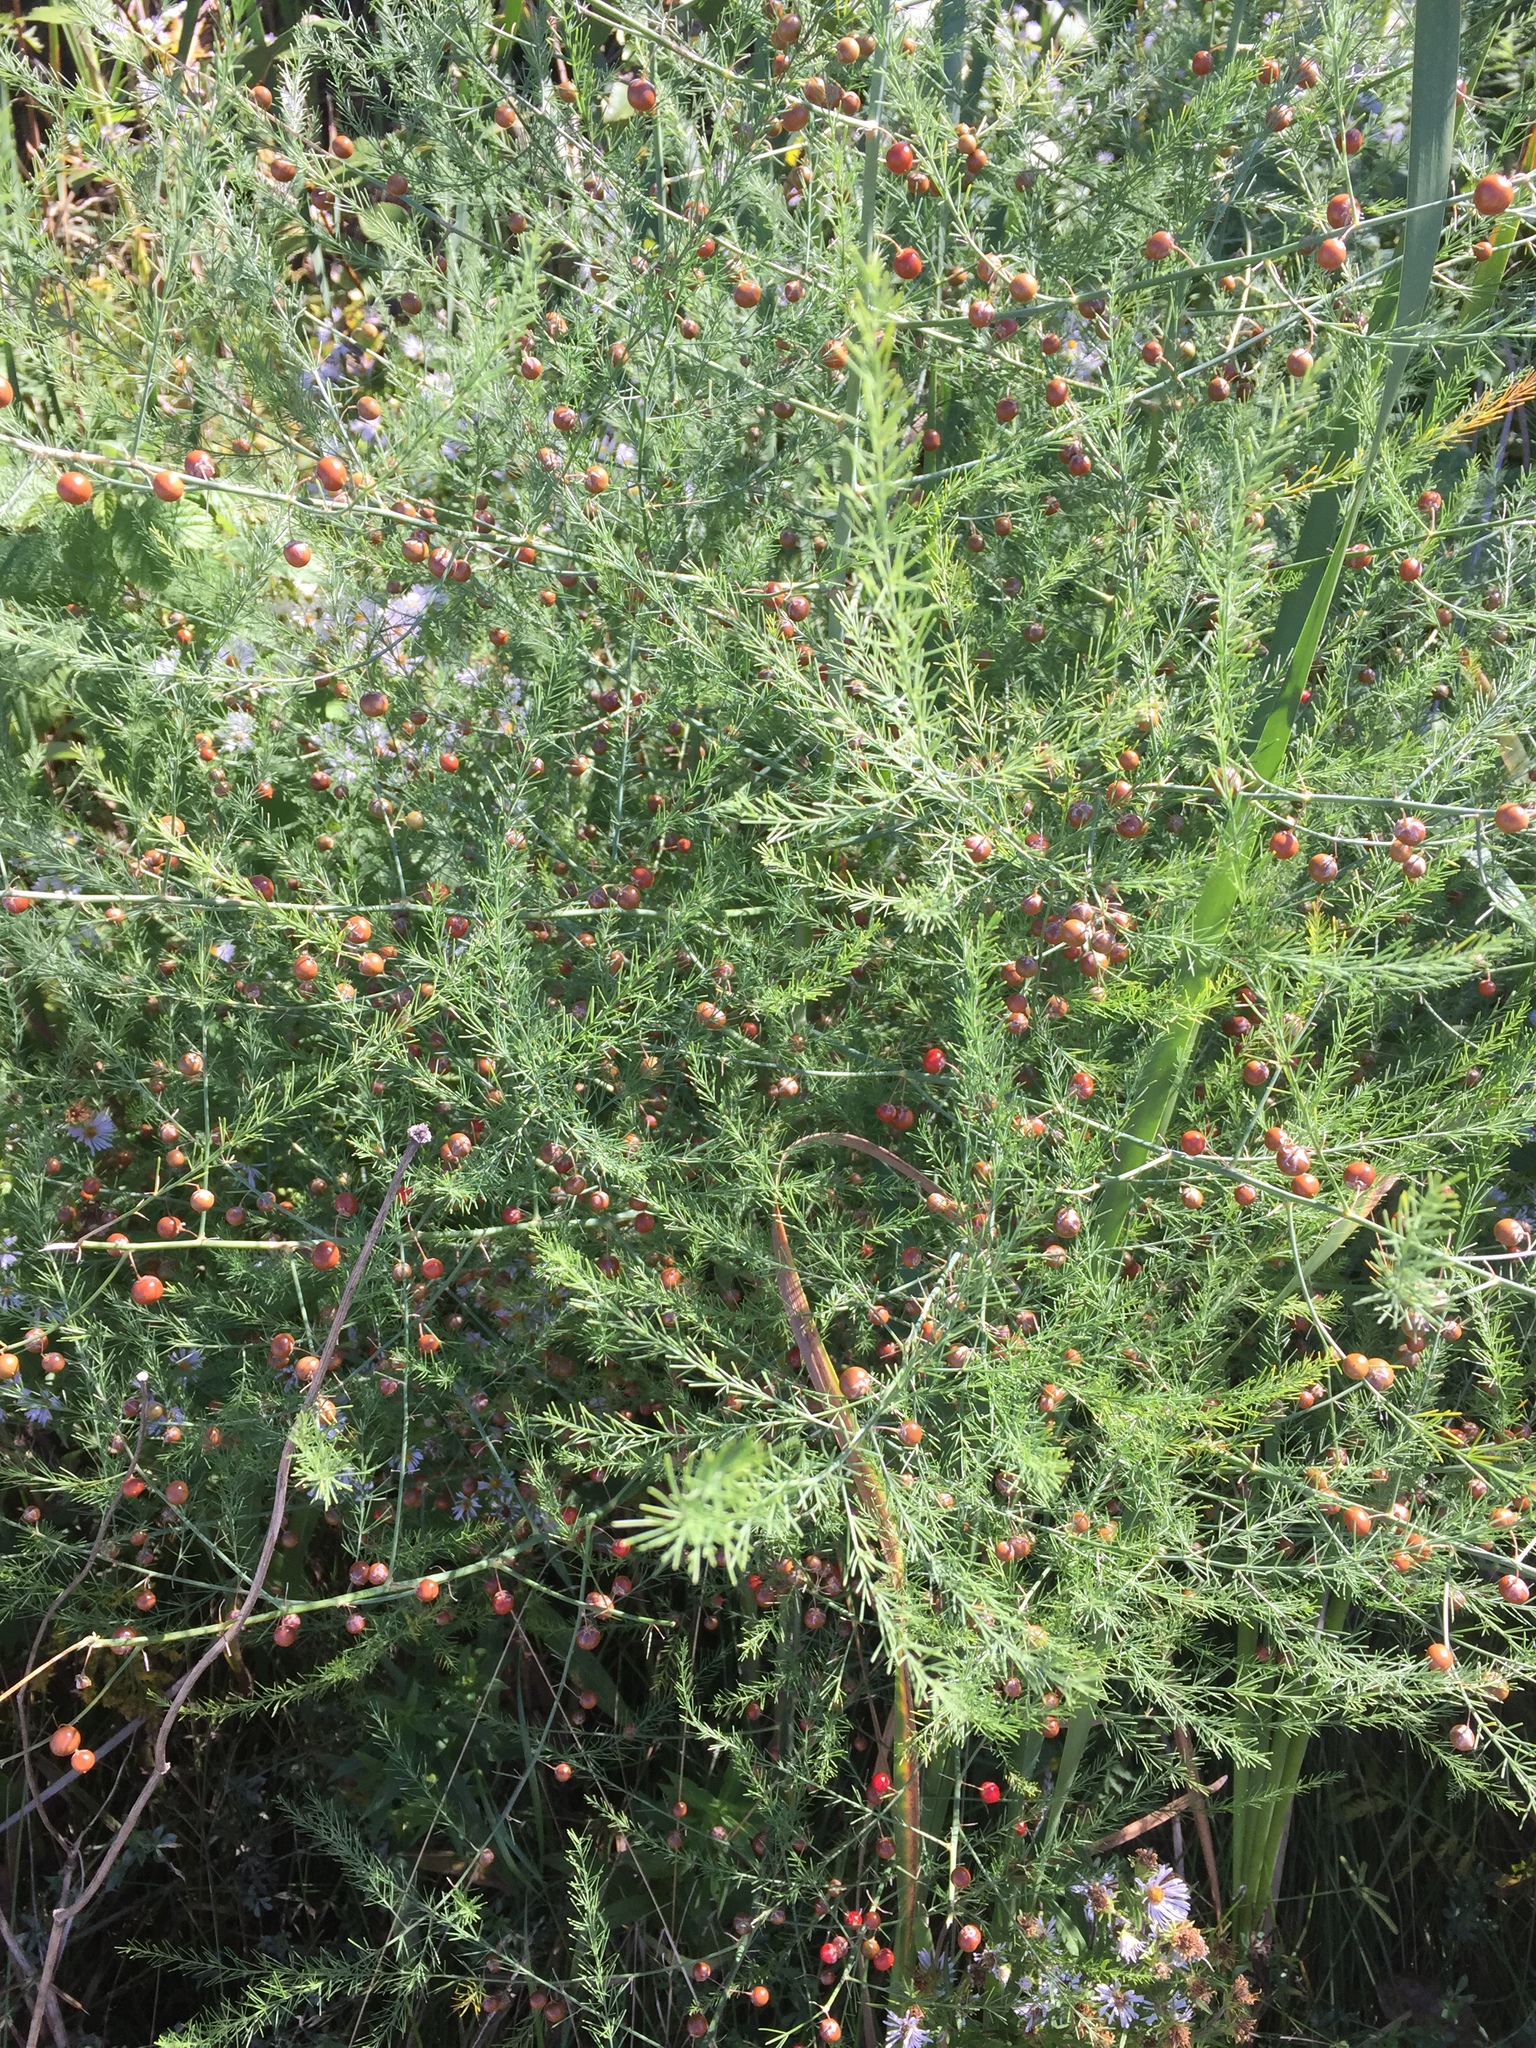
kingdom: Plantae
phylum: Tracheophyta
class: Liliopsida
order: Asparagales
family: Asparagaceae
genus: Asparagus
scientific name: Asparagus officinalis
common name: Garden asparagus
